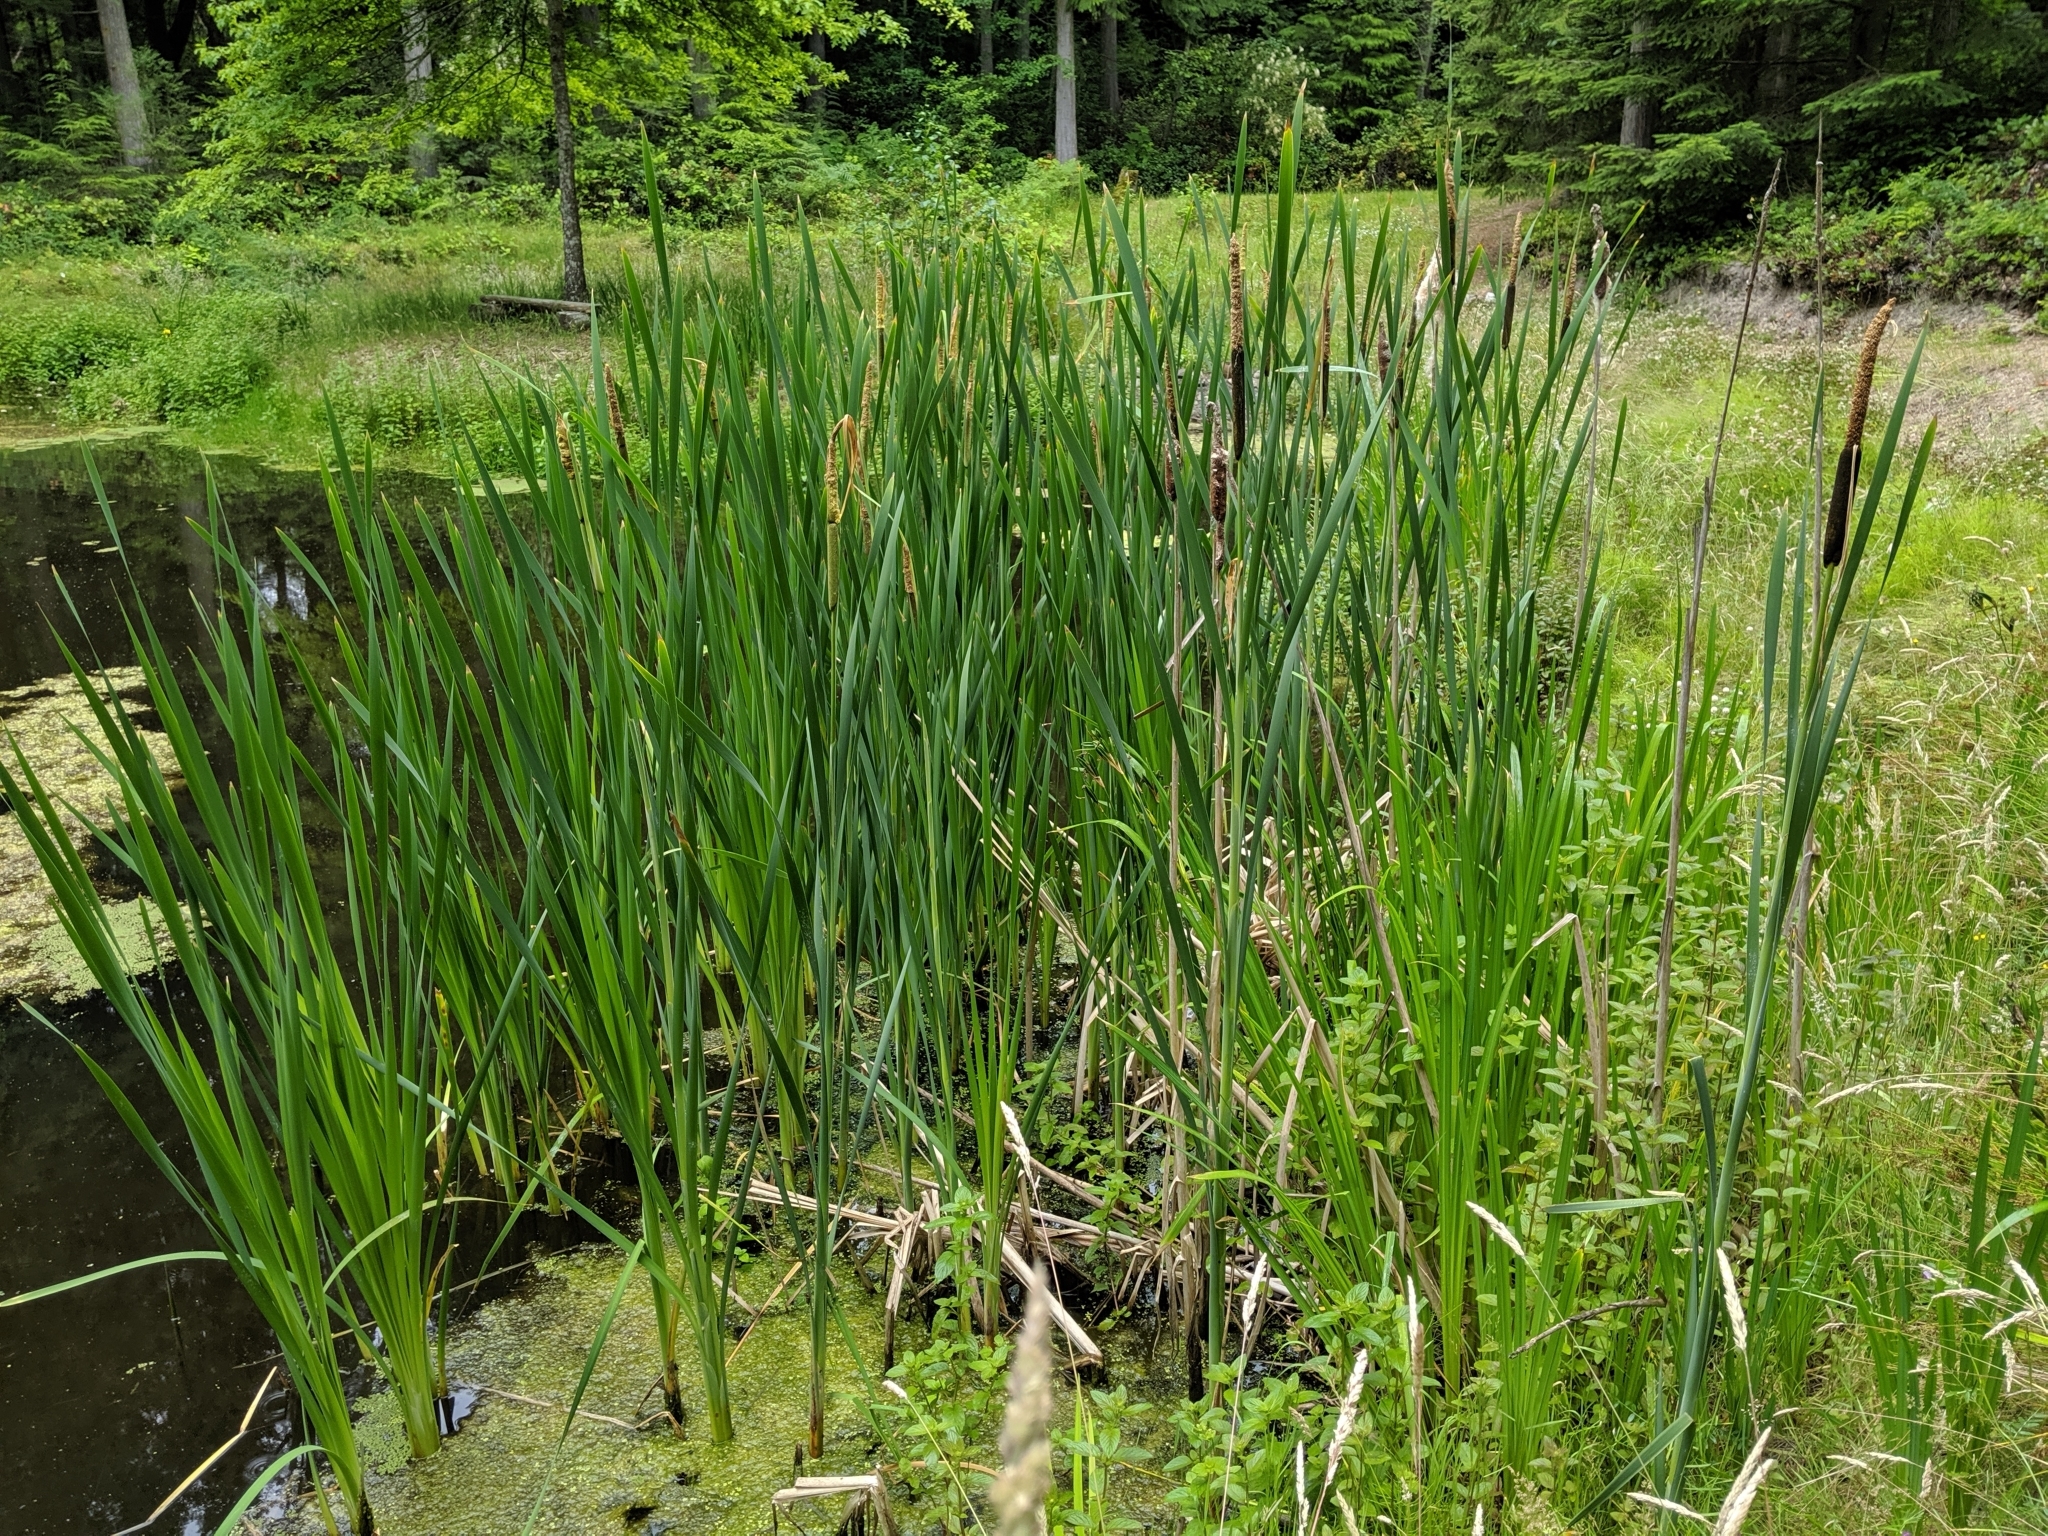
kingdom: Plantae
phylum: Tracheophyta
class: Liliopsida
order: Poales
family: Typhaceae
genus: Typha
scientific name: Typha latifolia
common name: Broadleaf cattail
